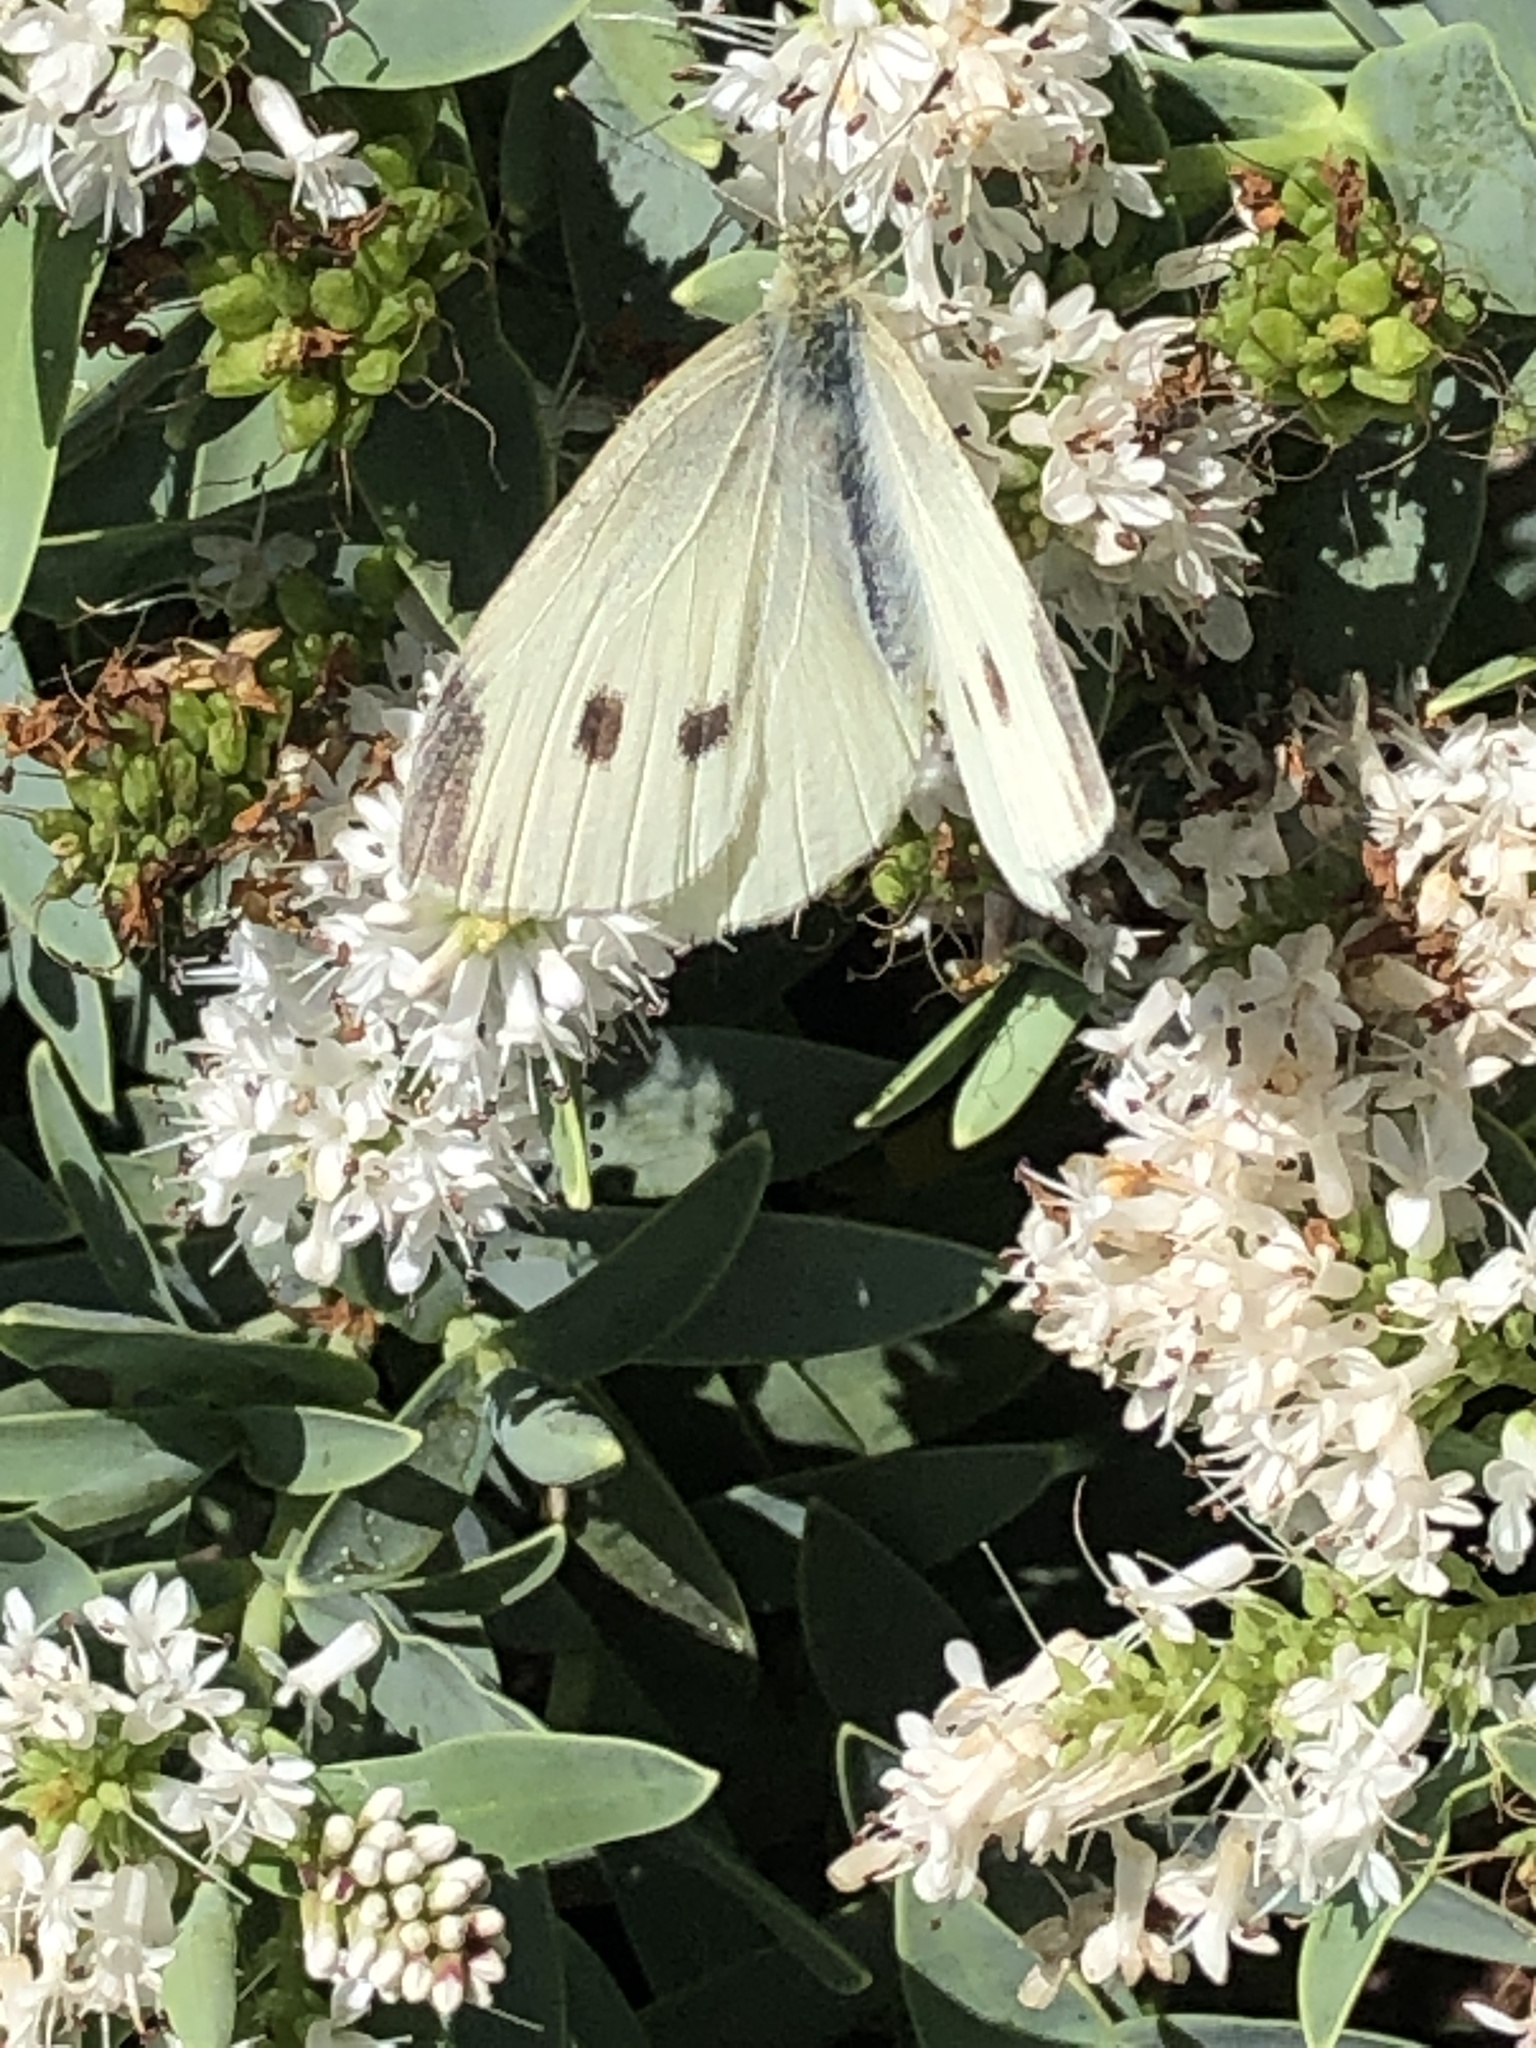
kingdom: Animalia
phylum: Arthropoda
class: Insecta
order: Lepidoptera
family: Pieridae
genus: Pieris
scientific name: Pieris rapae
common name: Small white
